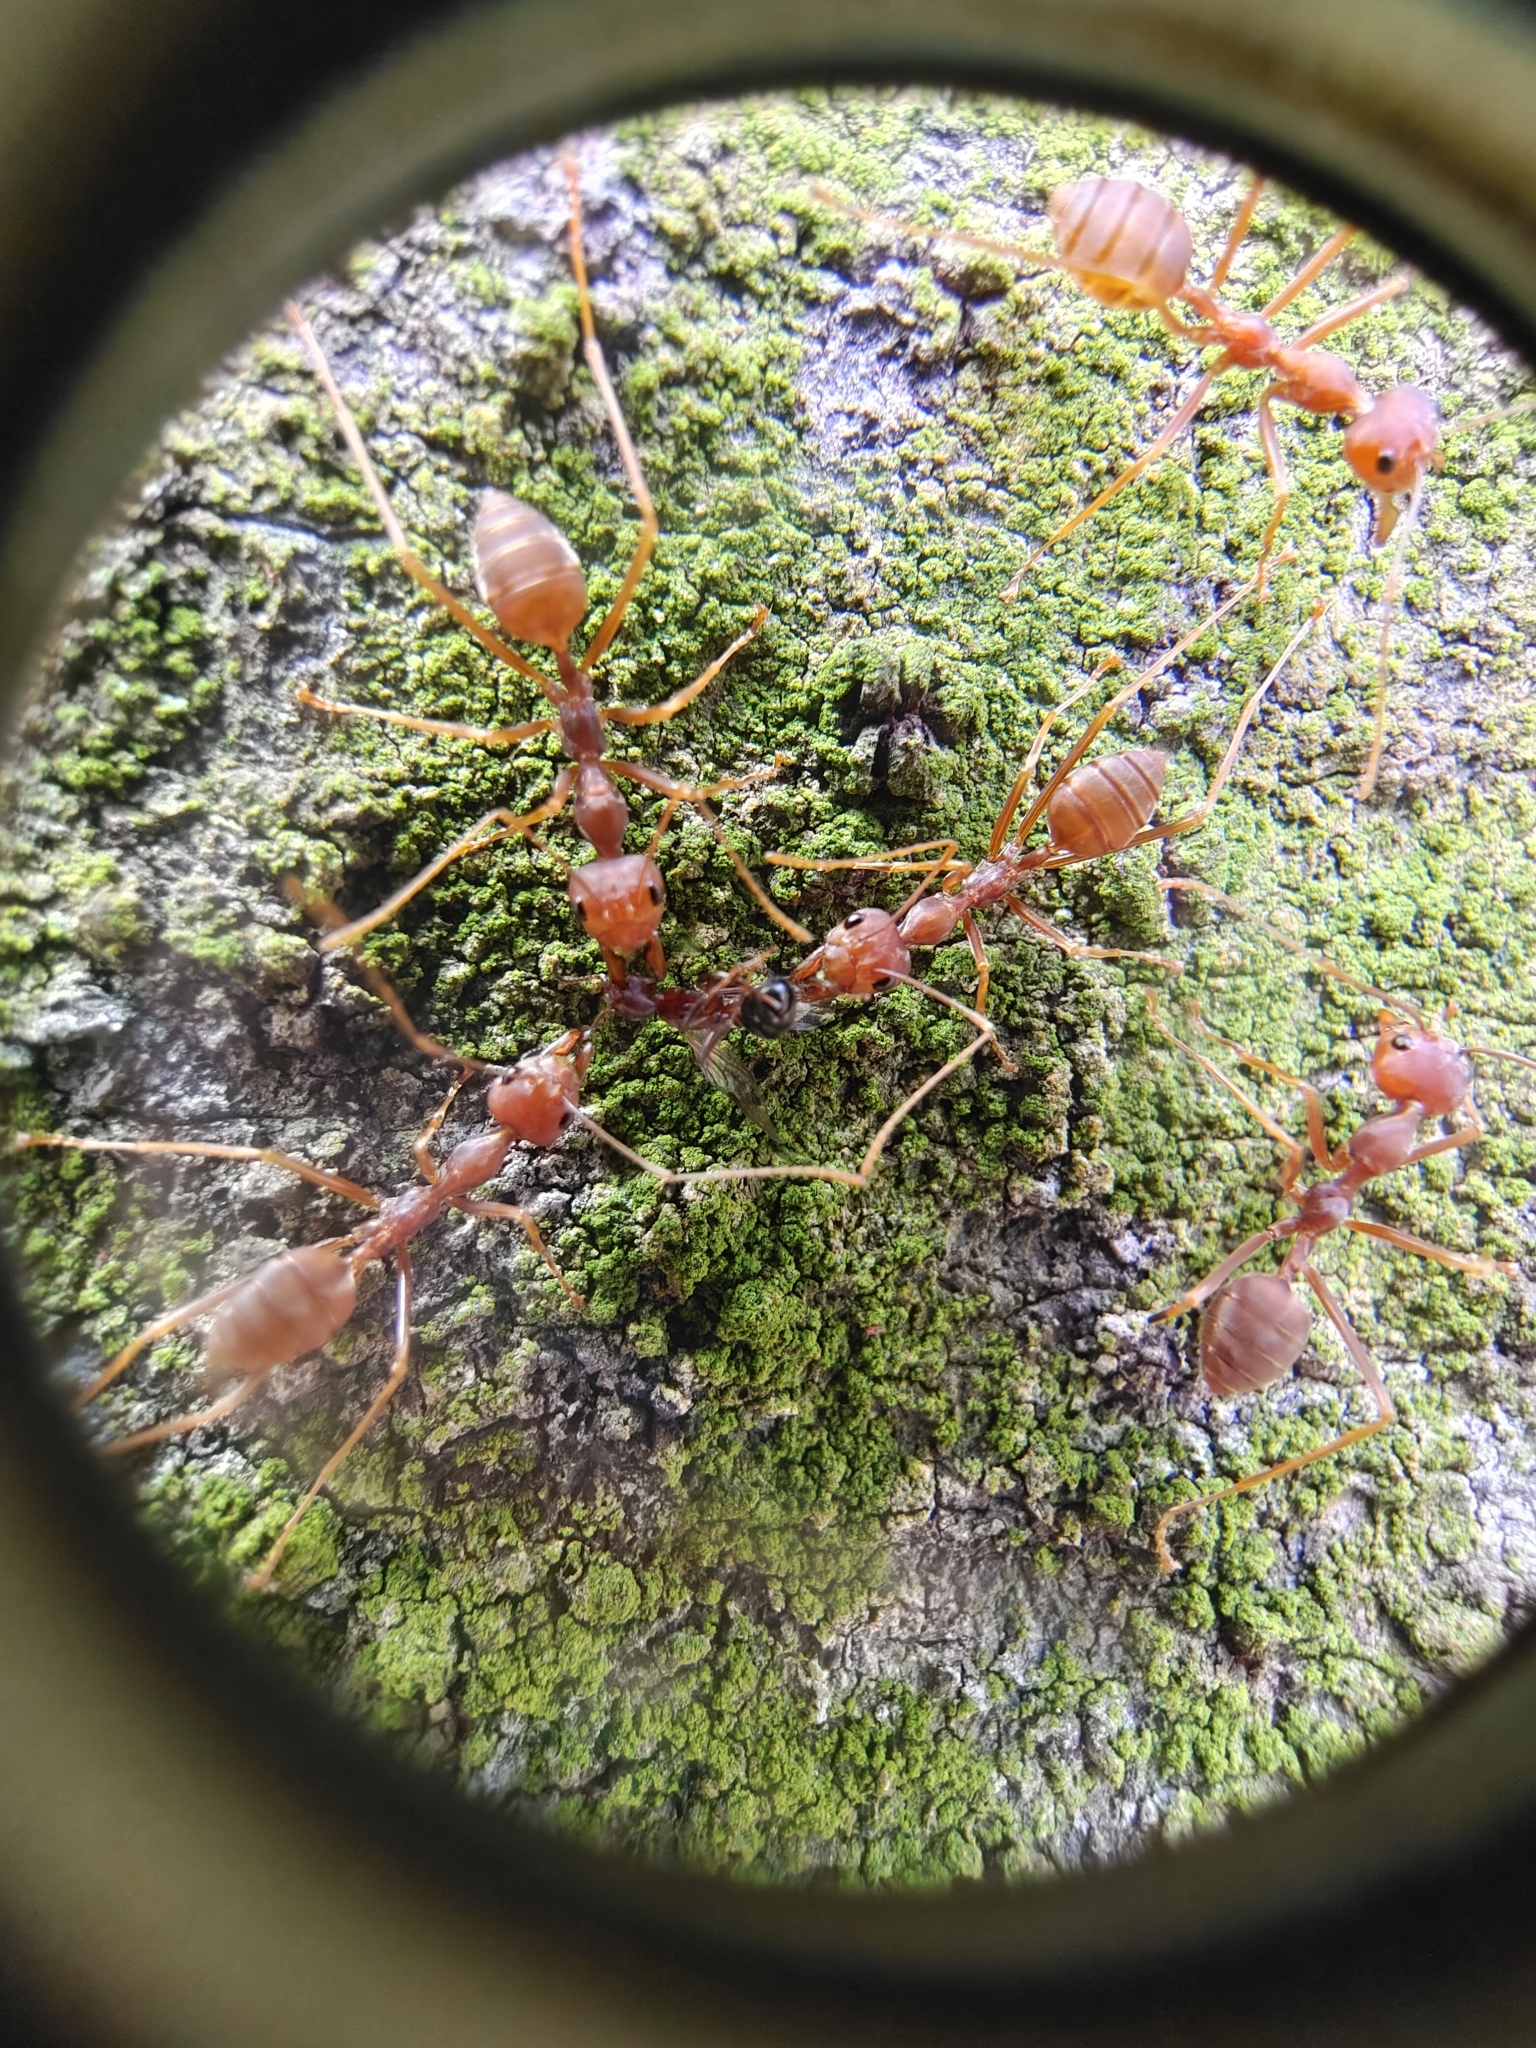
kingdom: Animalia
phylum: Arthropoda
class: Insecta
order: Hymenoptera
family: Formicidae
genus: Oecophylla
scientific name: Oecophylla smaragdina
